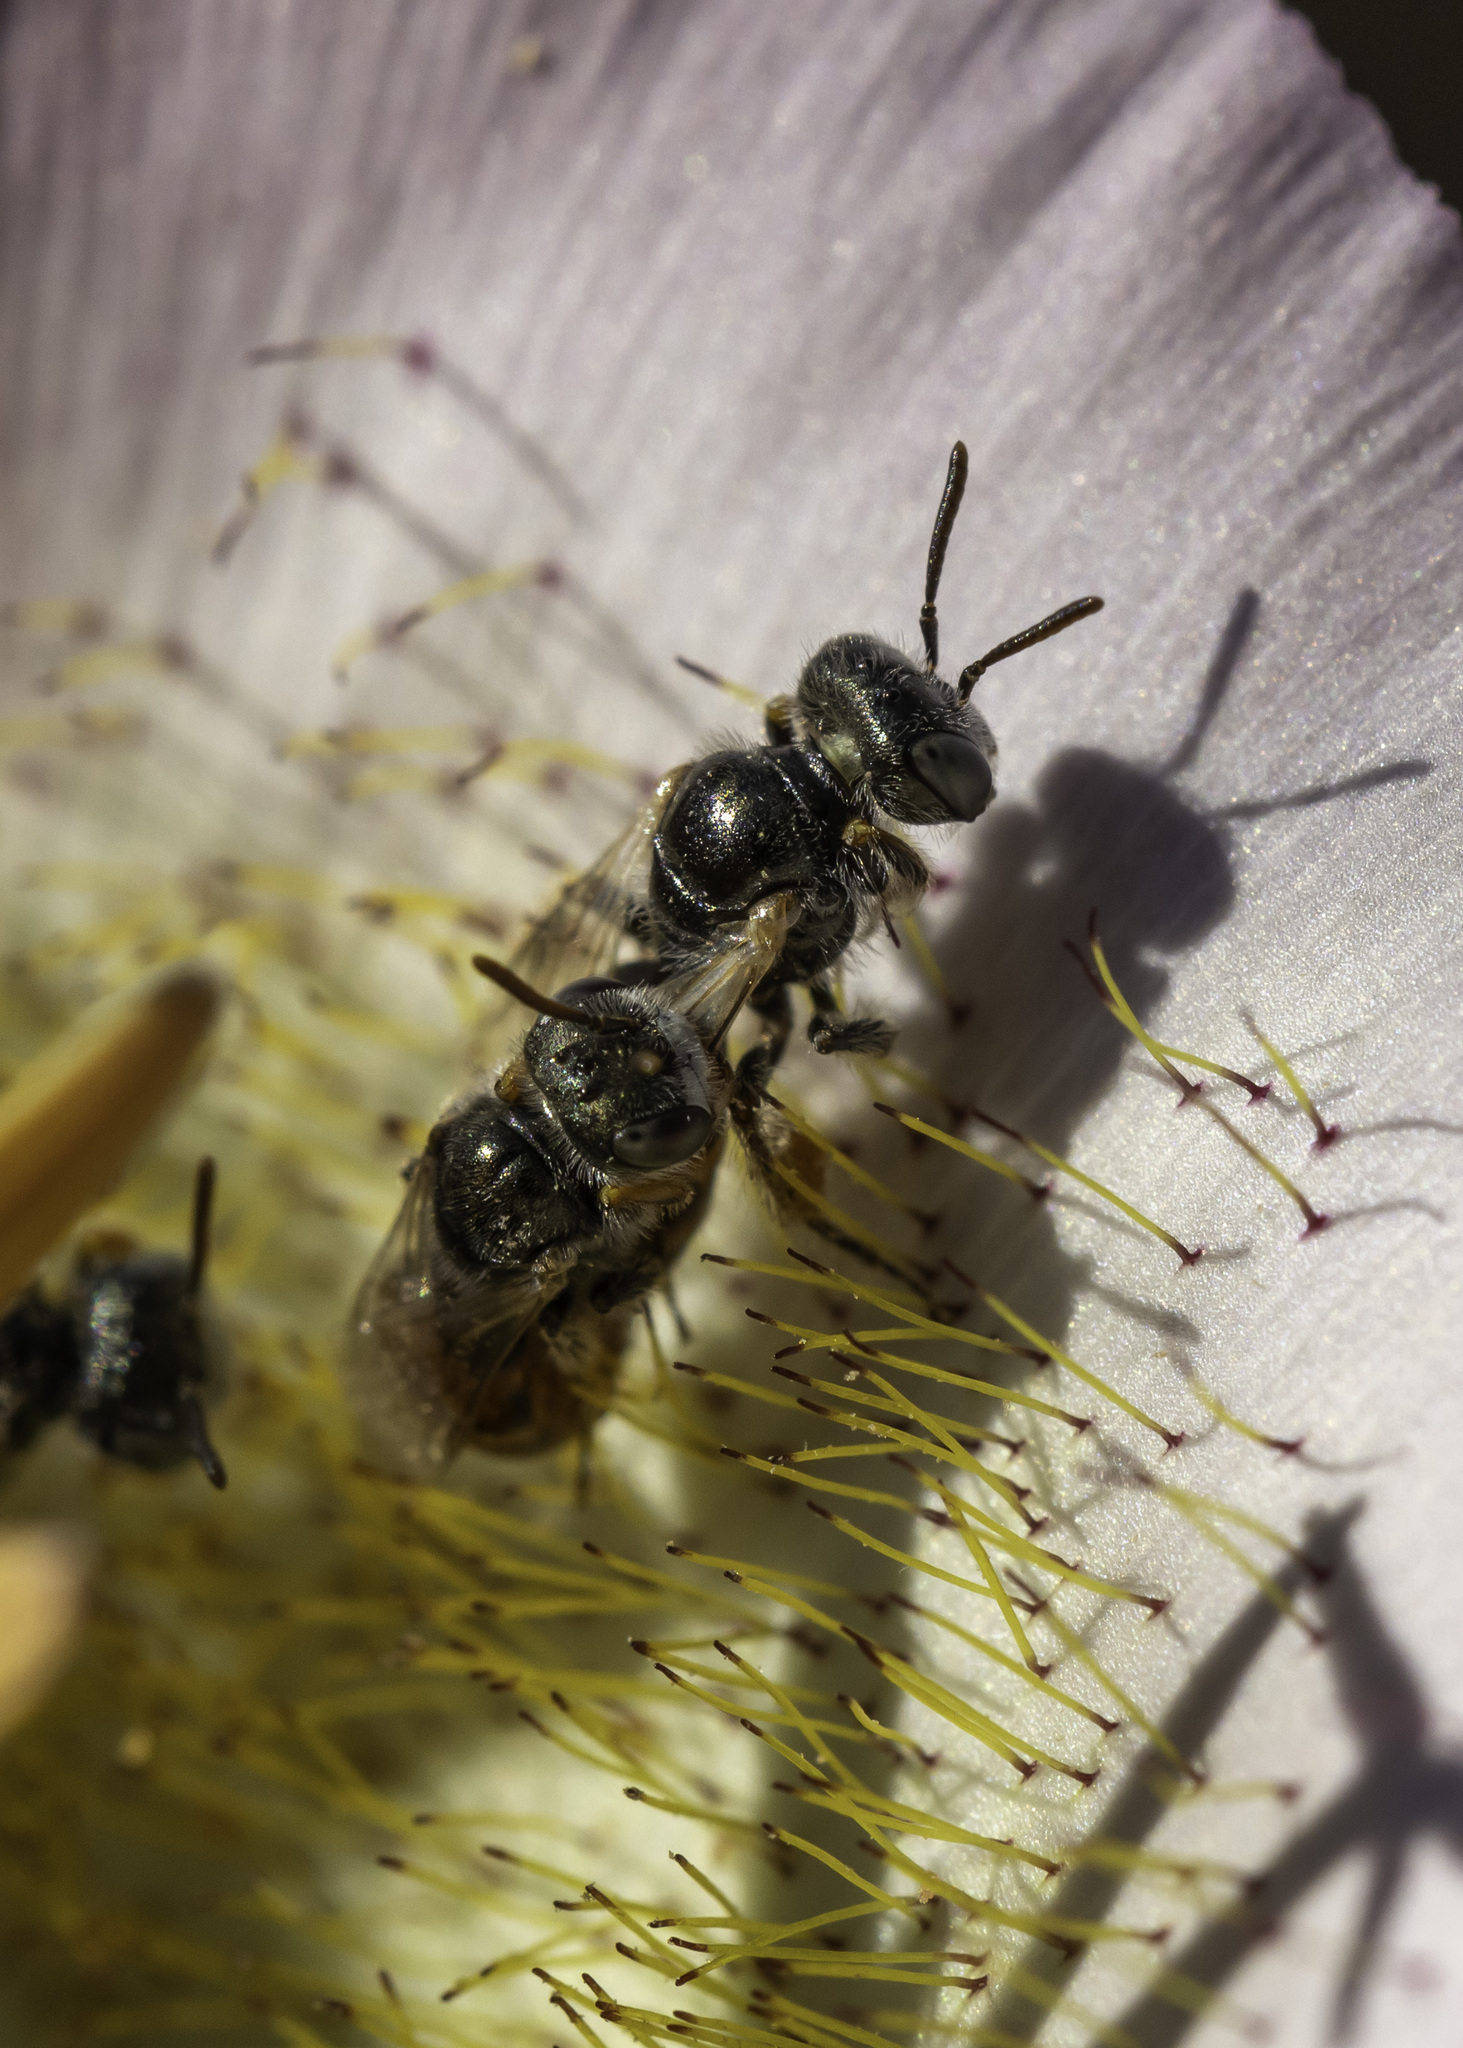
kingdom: Animalia
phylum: Arthropoda
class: Insecta
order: Hymenoptera
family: Andrenidae
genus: Perdita
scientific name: Perdita californica
